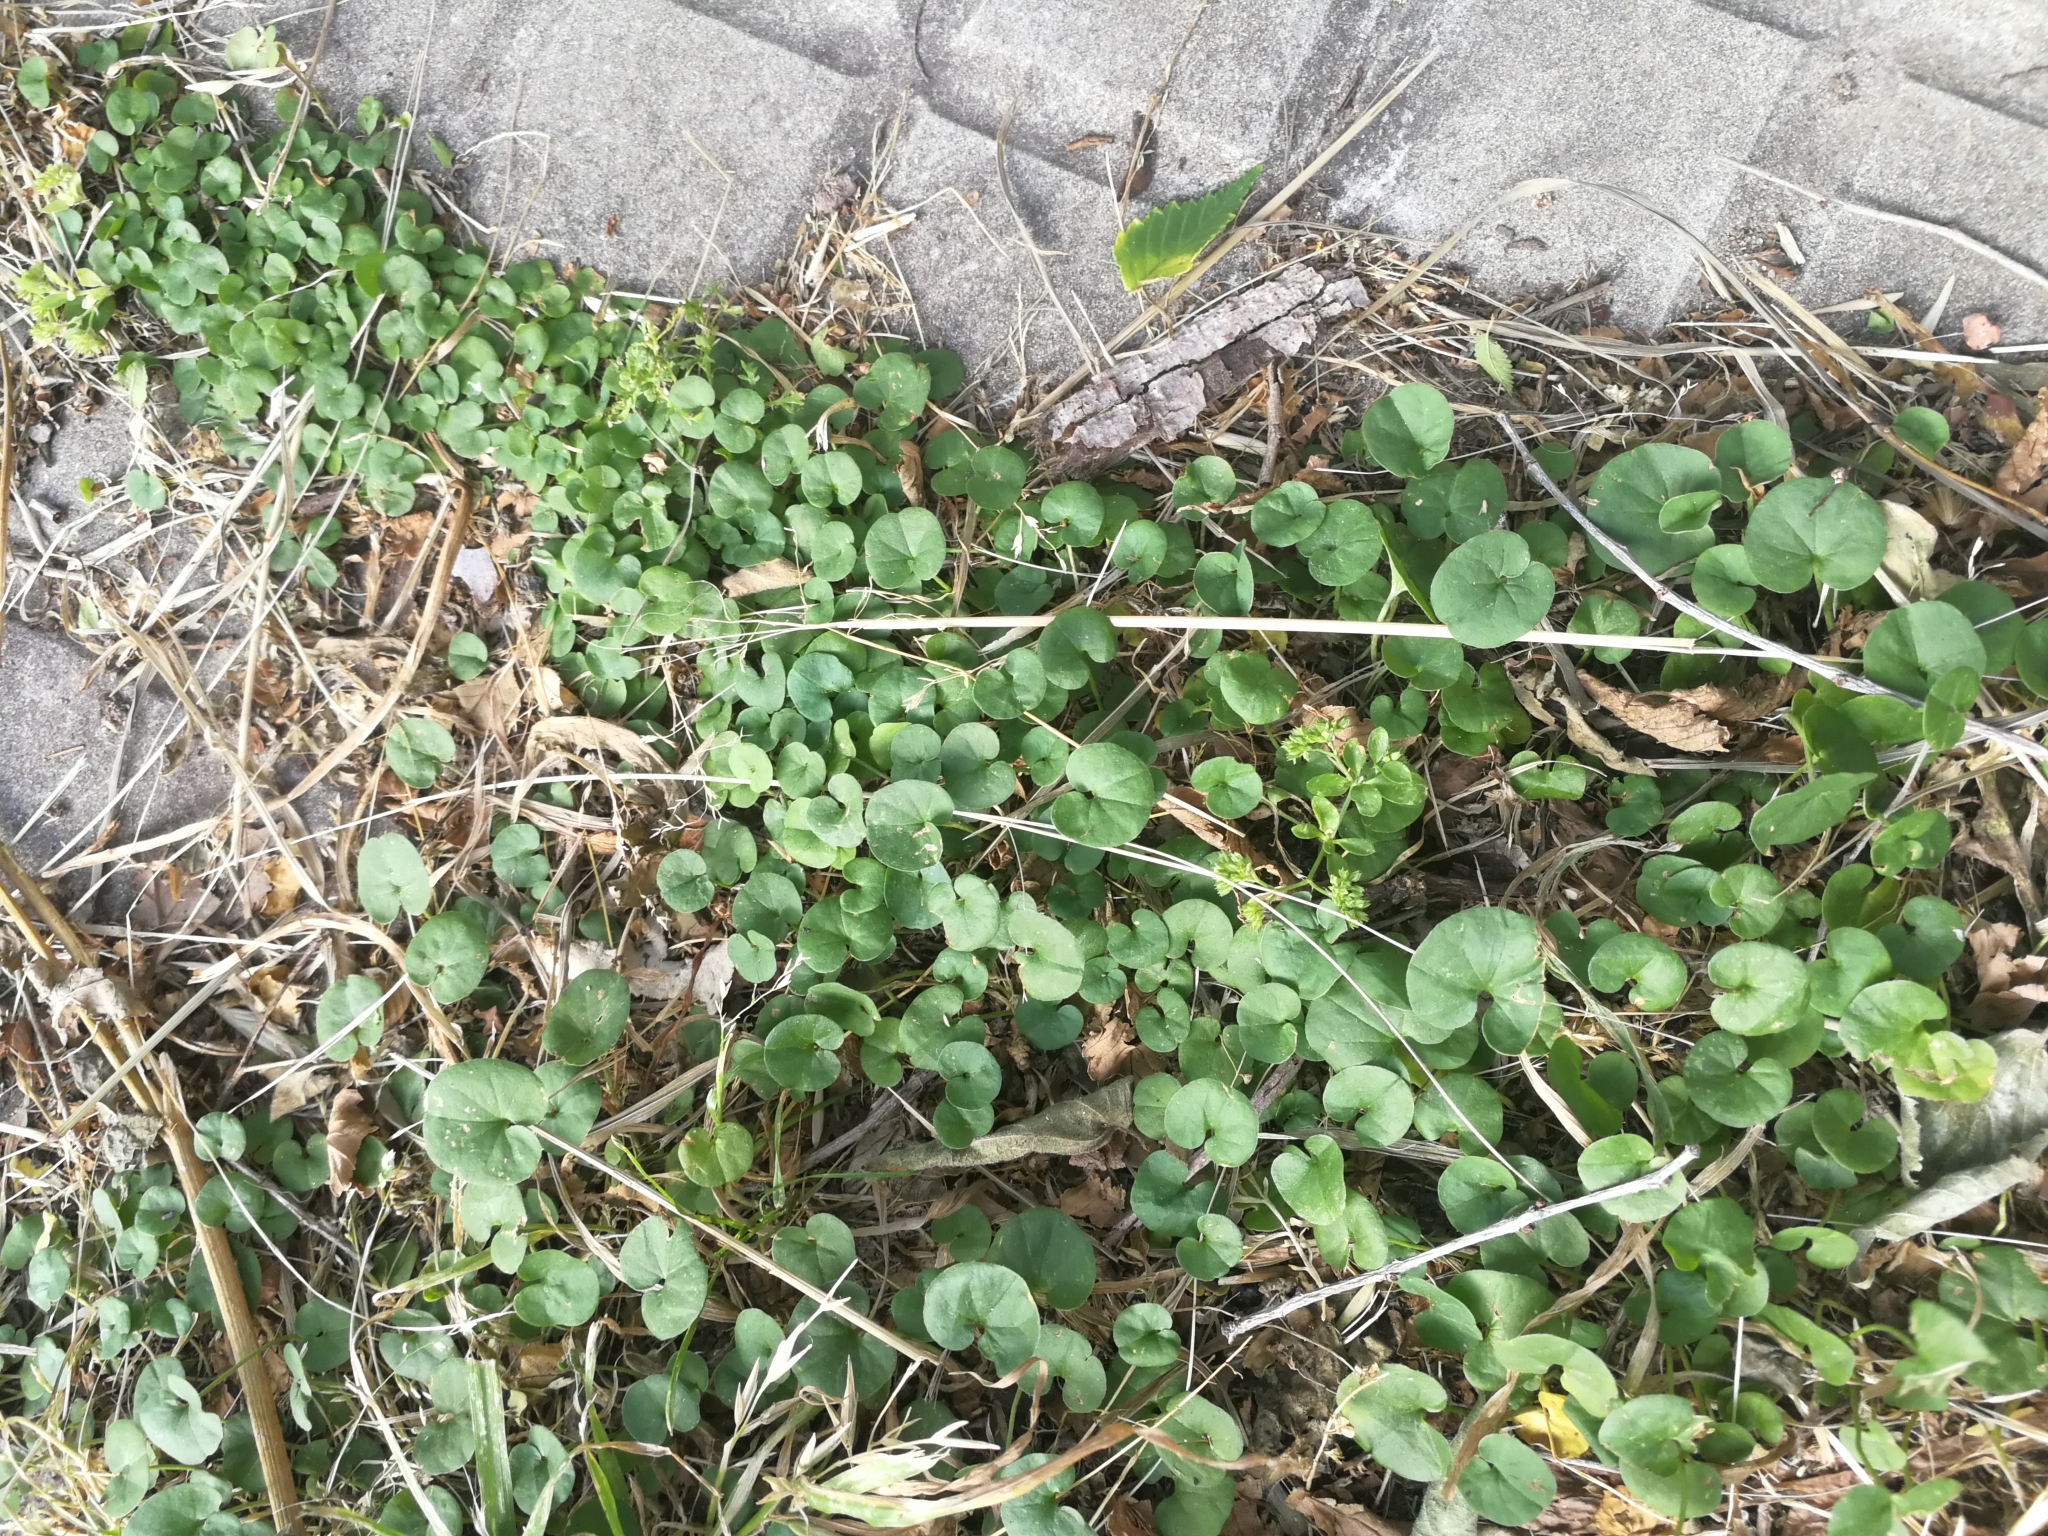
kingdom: Plantae
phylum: Tracheophyta
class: Magnoliopsida
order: Solanales
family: Convolvulaceae
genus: Dichondra
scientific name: Dichondra repens
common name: Kidneyweed
